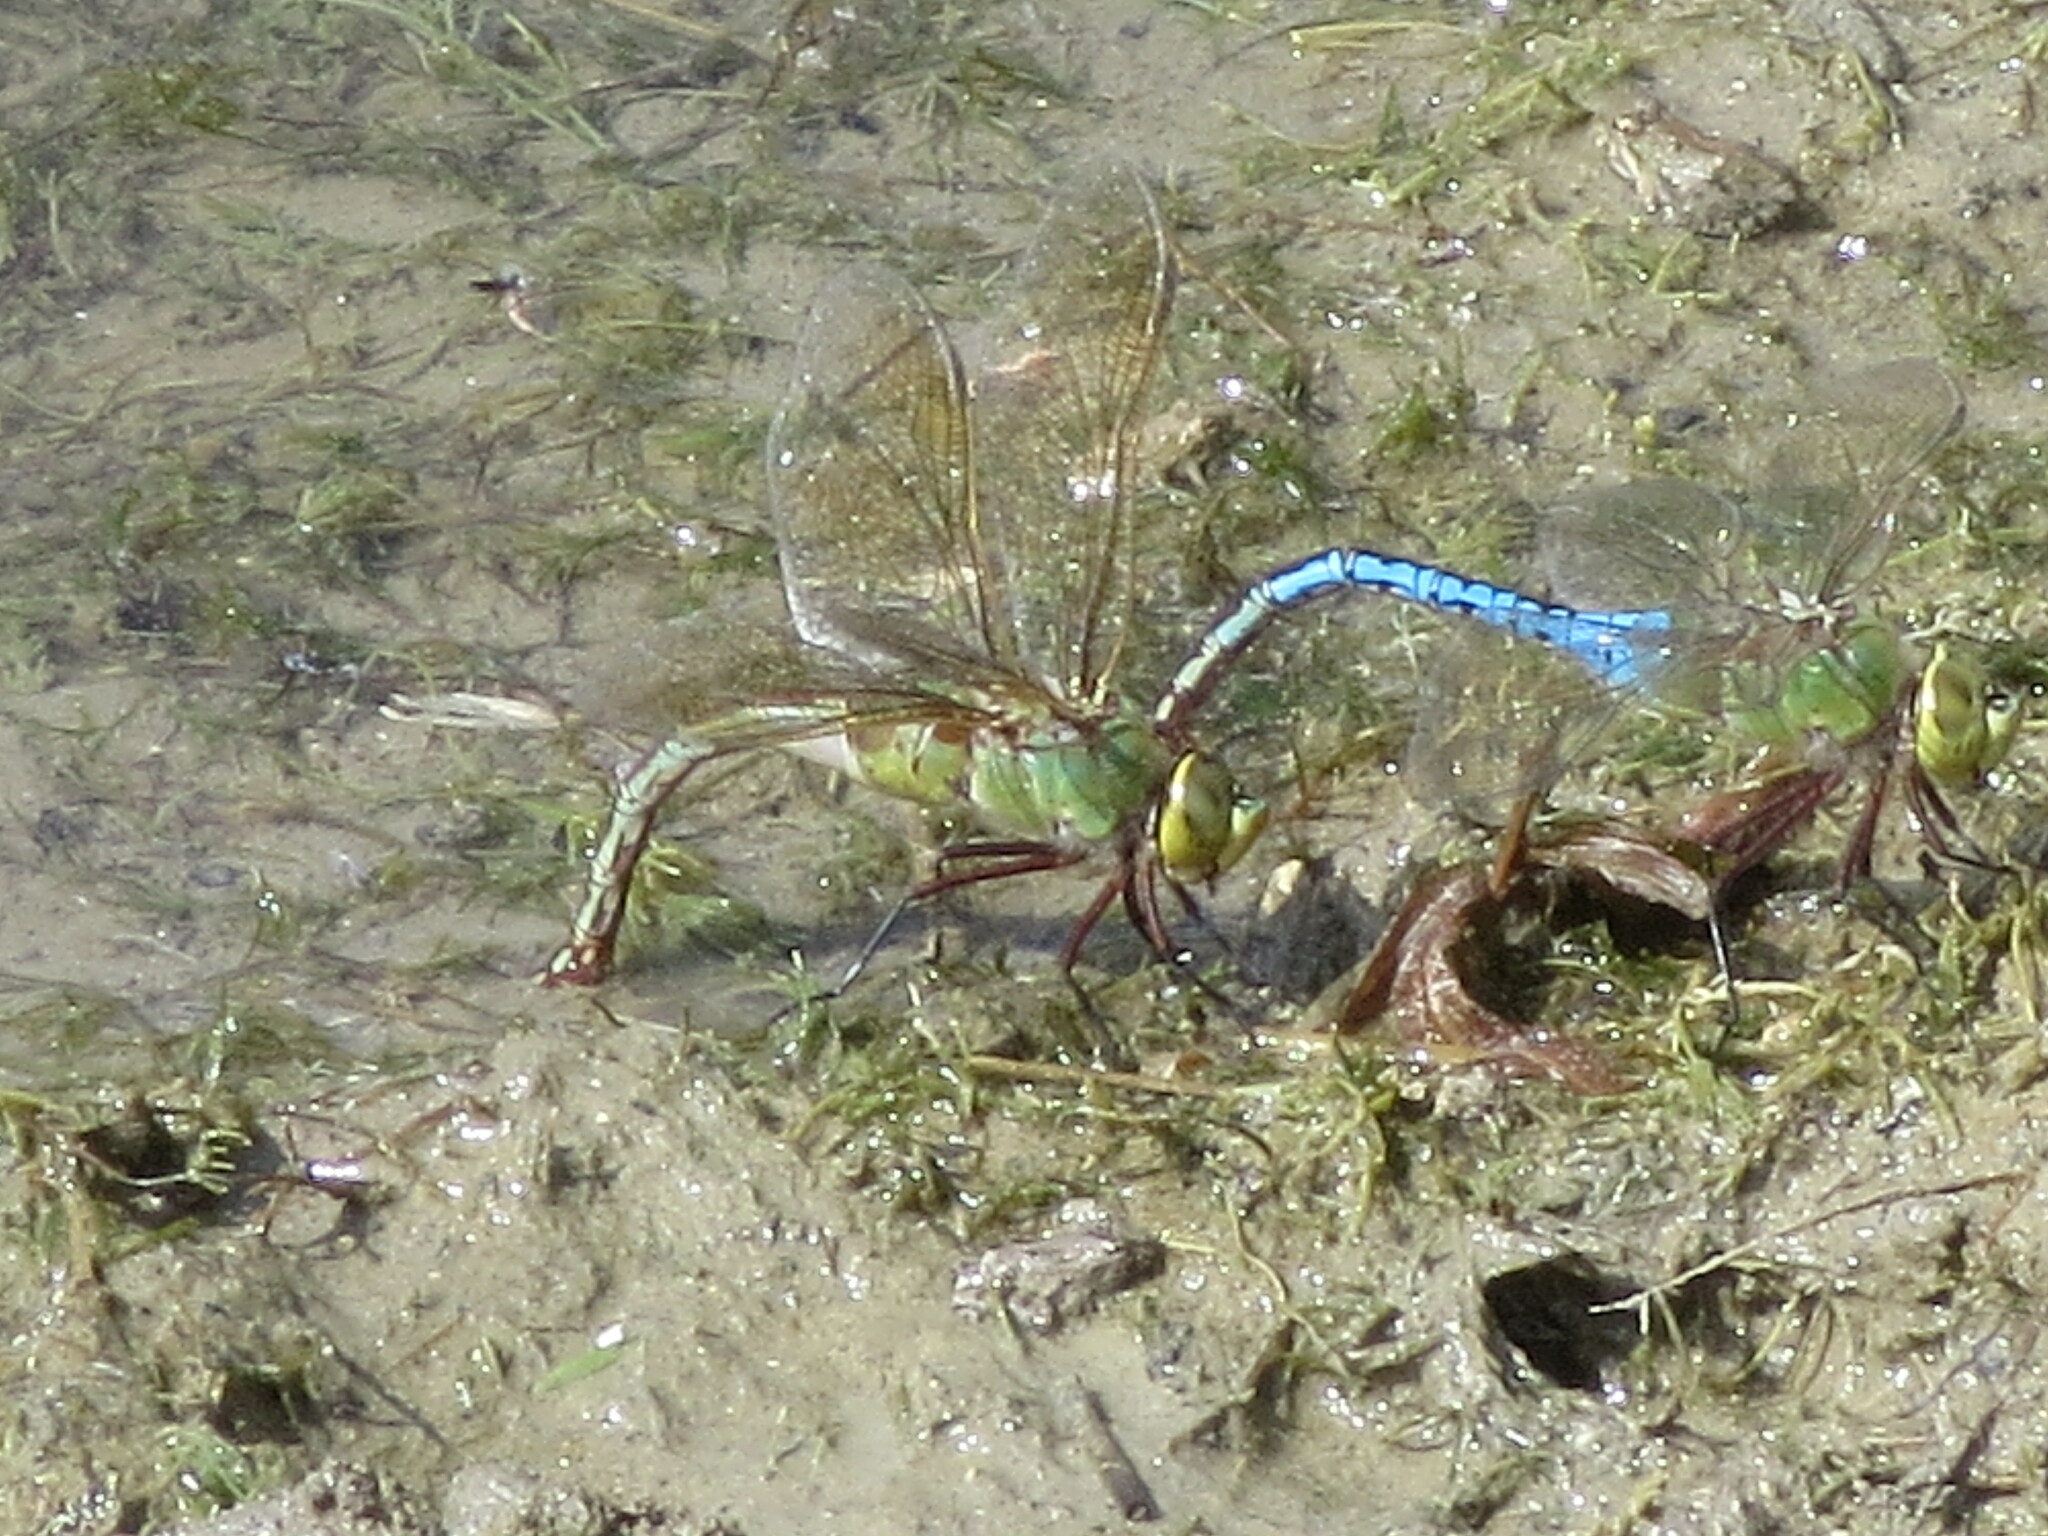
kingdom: Animalia
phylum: Arthropoda
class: Insecta
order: Odonata
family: Aeshnidae
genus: Anax
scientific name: Anax junius
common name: Common green darner
